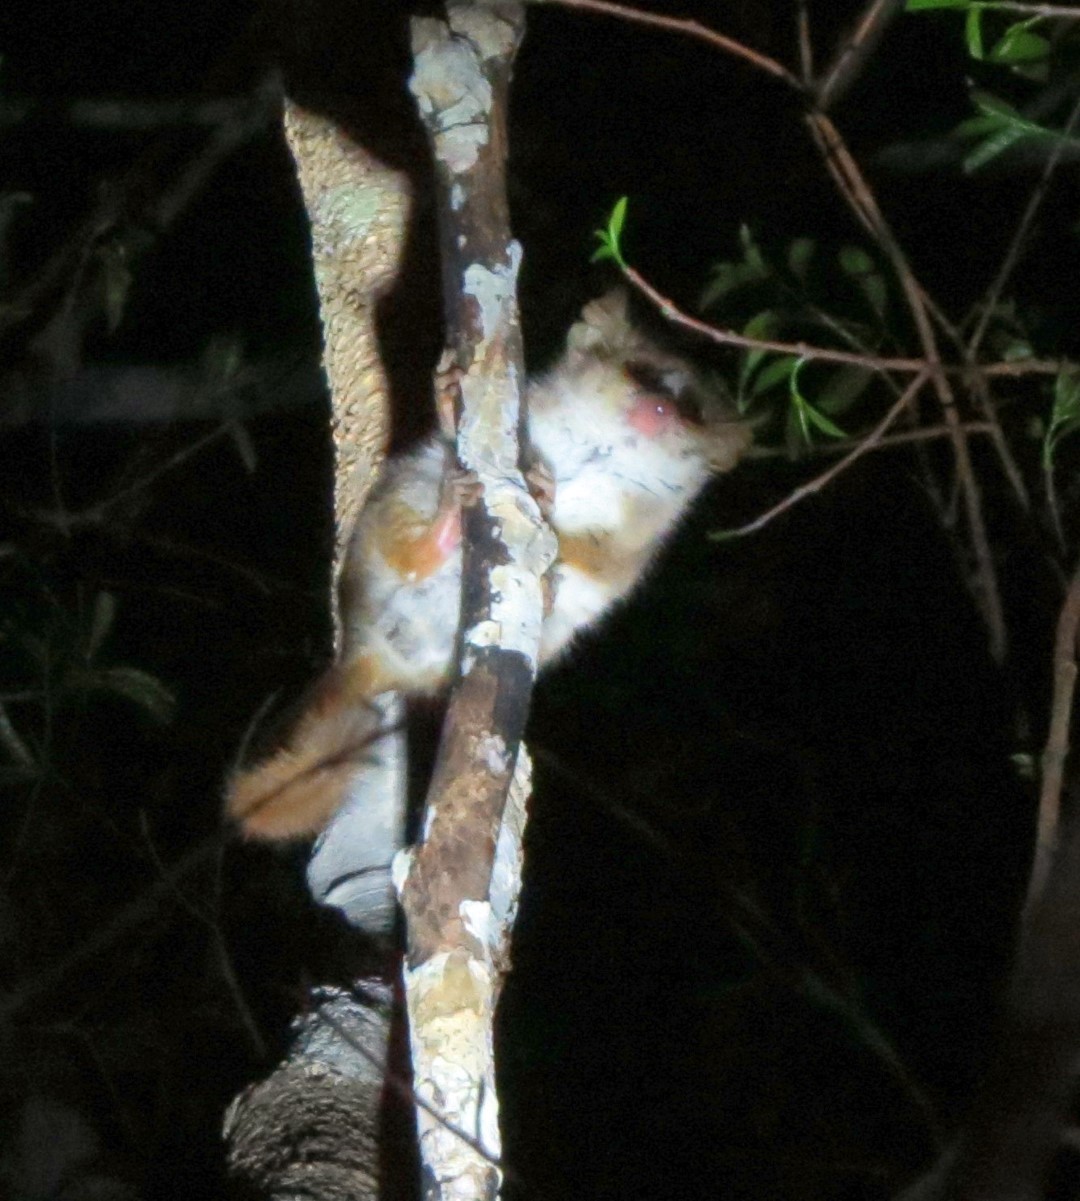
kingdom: Animalia
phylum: Chordata
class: Mammalia
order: Primates
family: Cheirogaleidae
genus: Microcebus
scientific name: Microcebus
